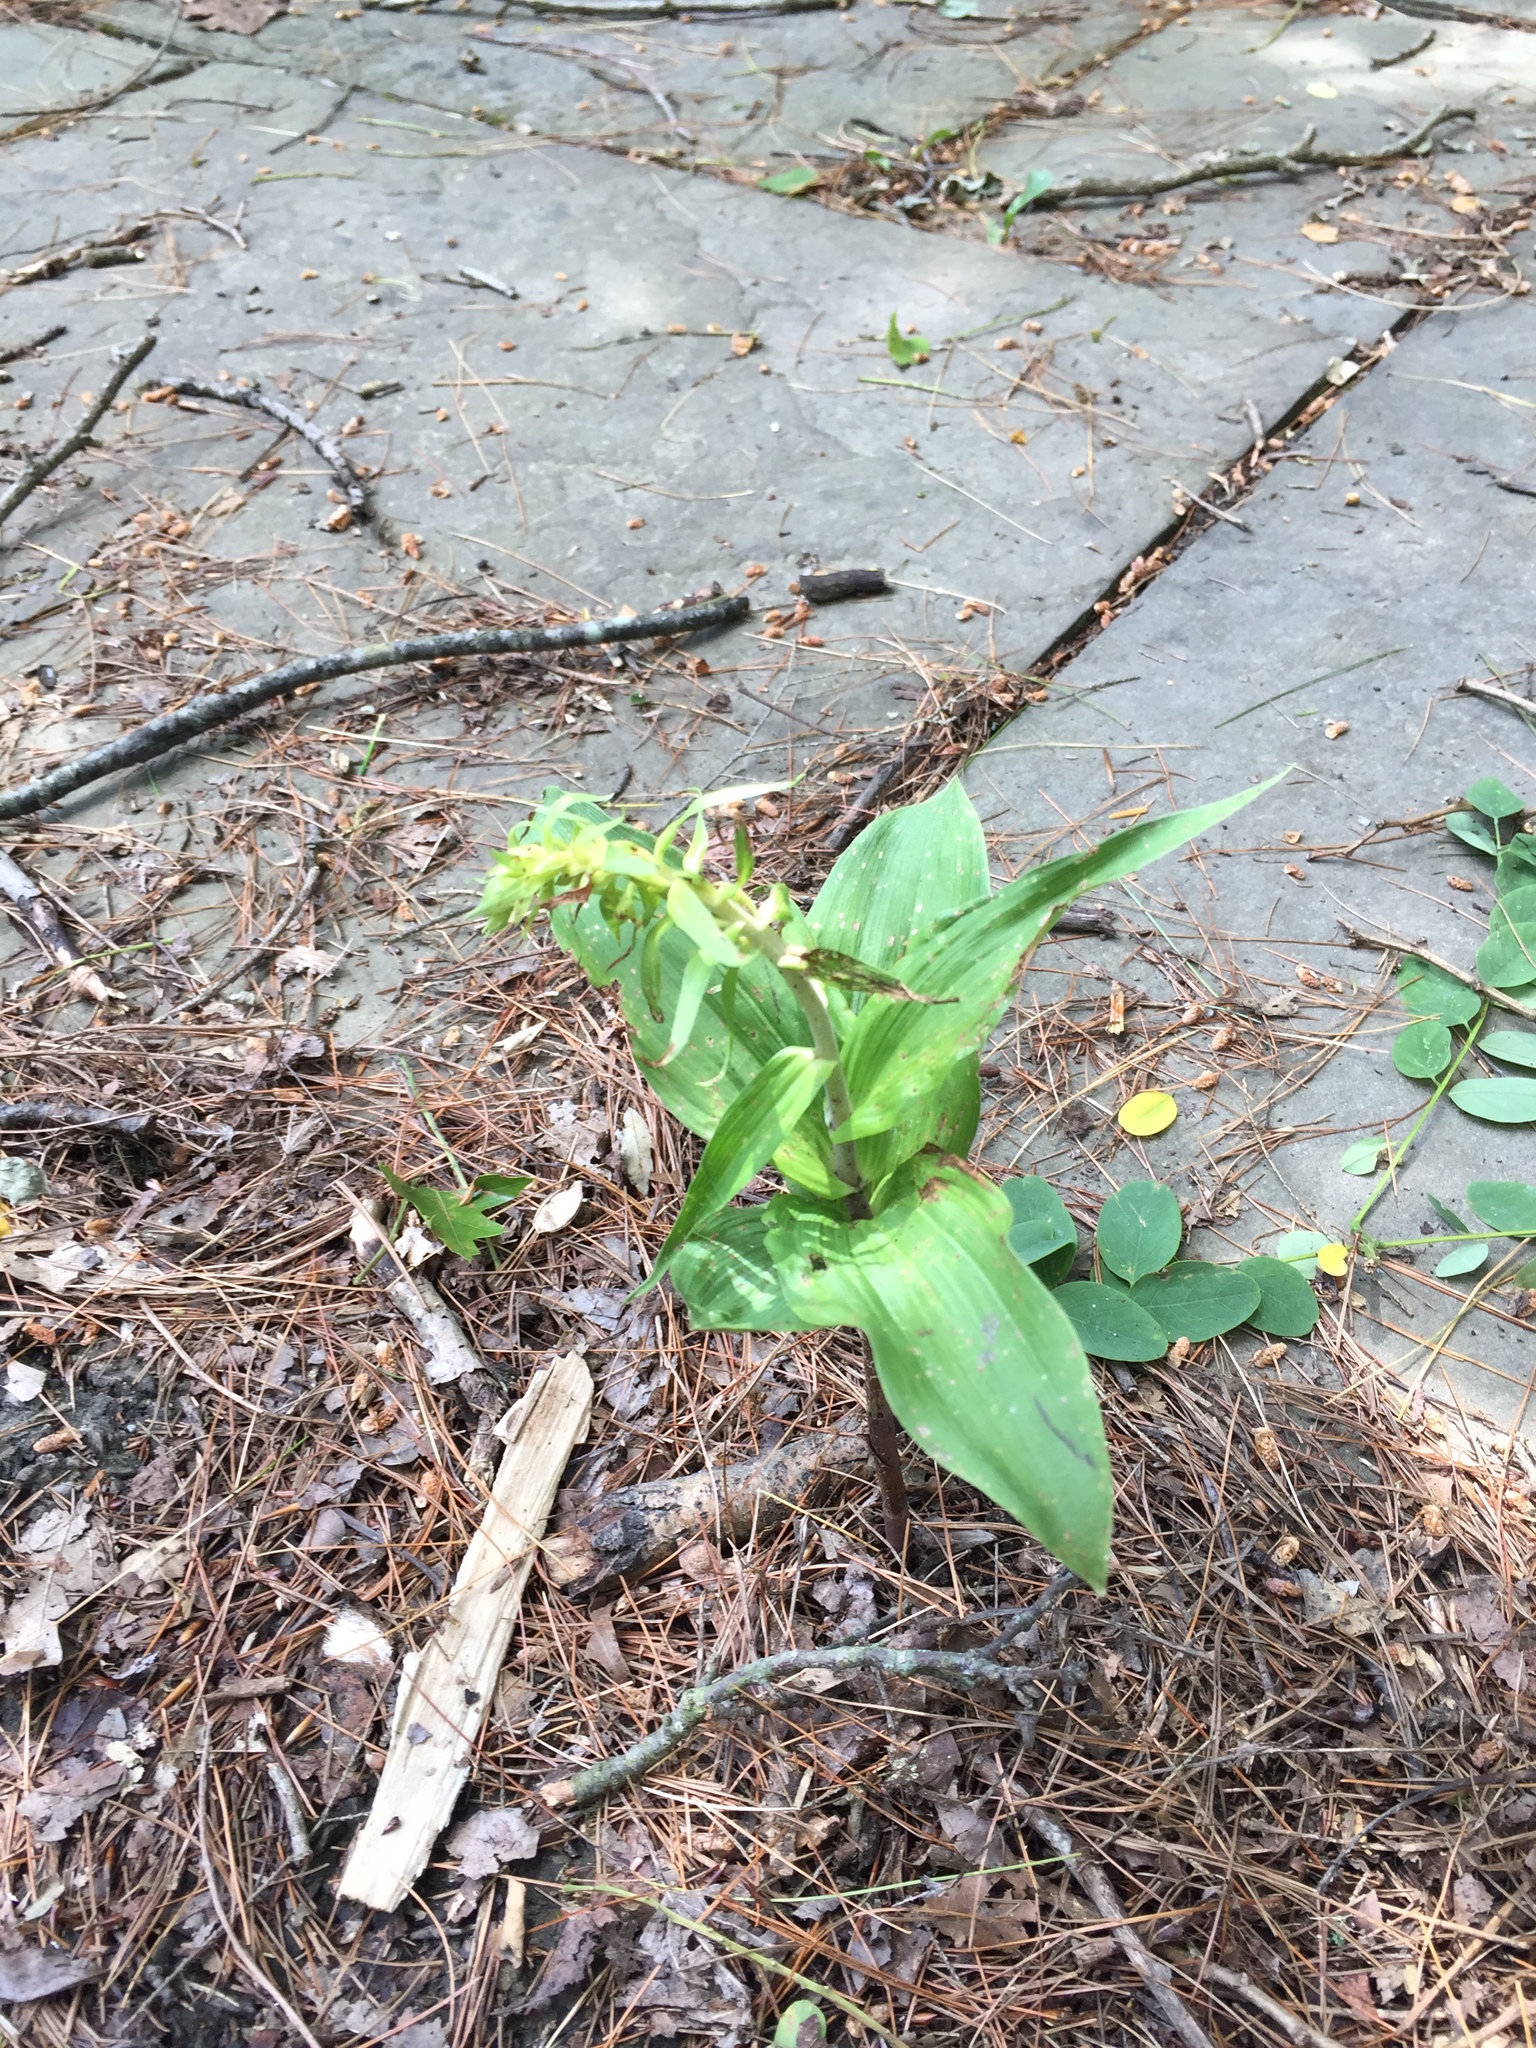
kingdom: Plantae
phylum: Tracheophyta
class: Liliopsida
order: Asparagales
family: Orchidaceae
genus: Epipactis
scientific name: Epipactis helleborine
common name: Broad-leaved helleborine
